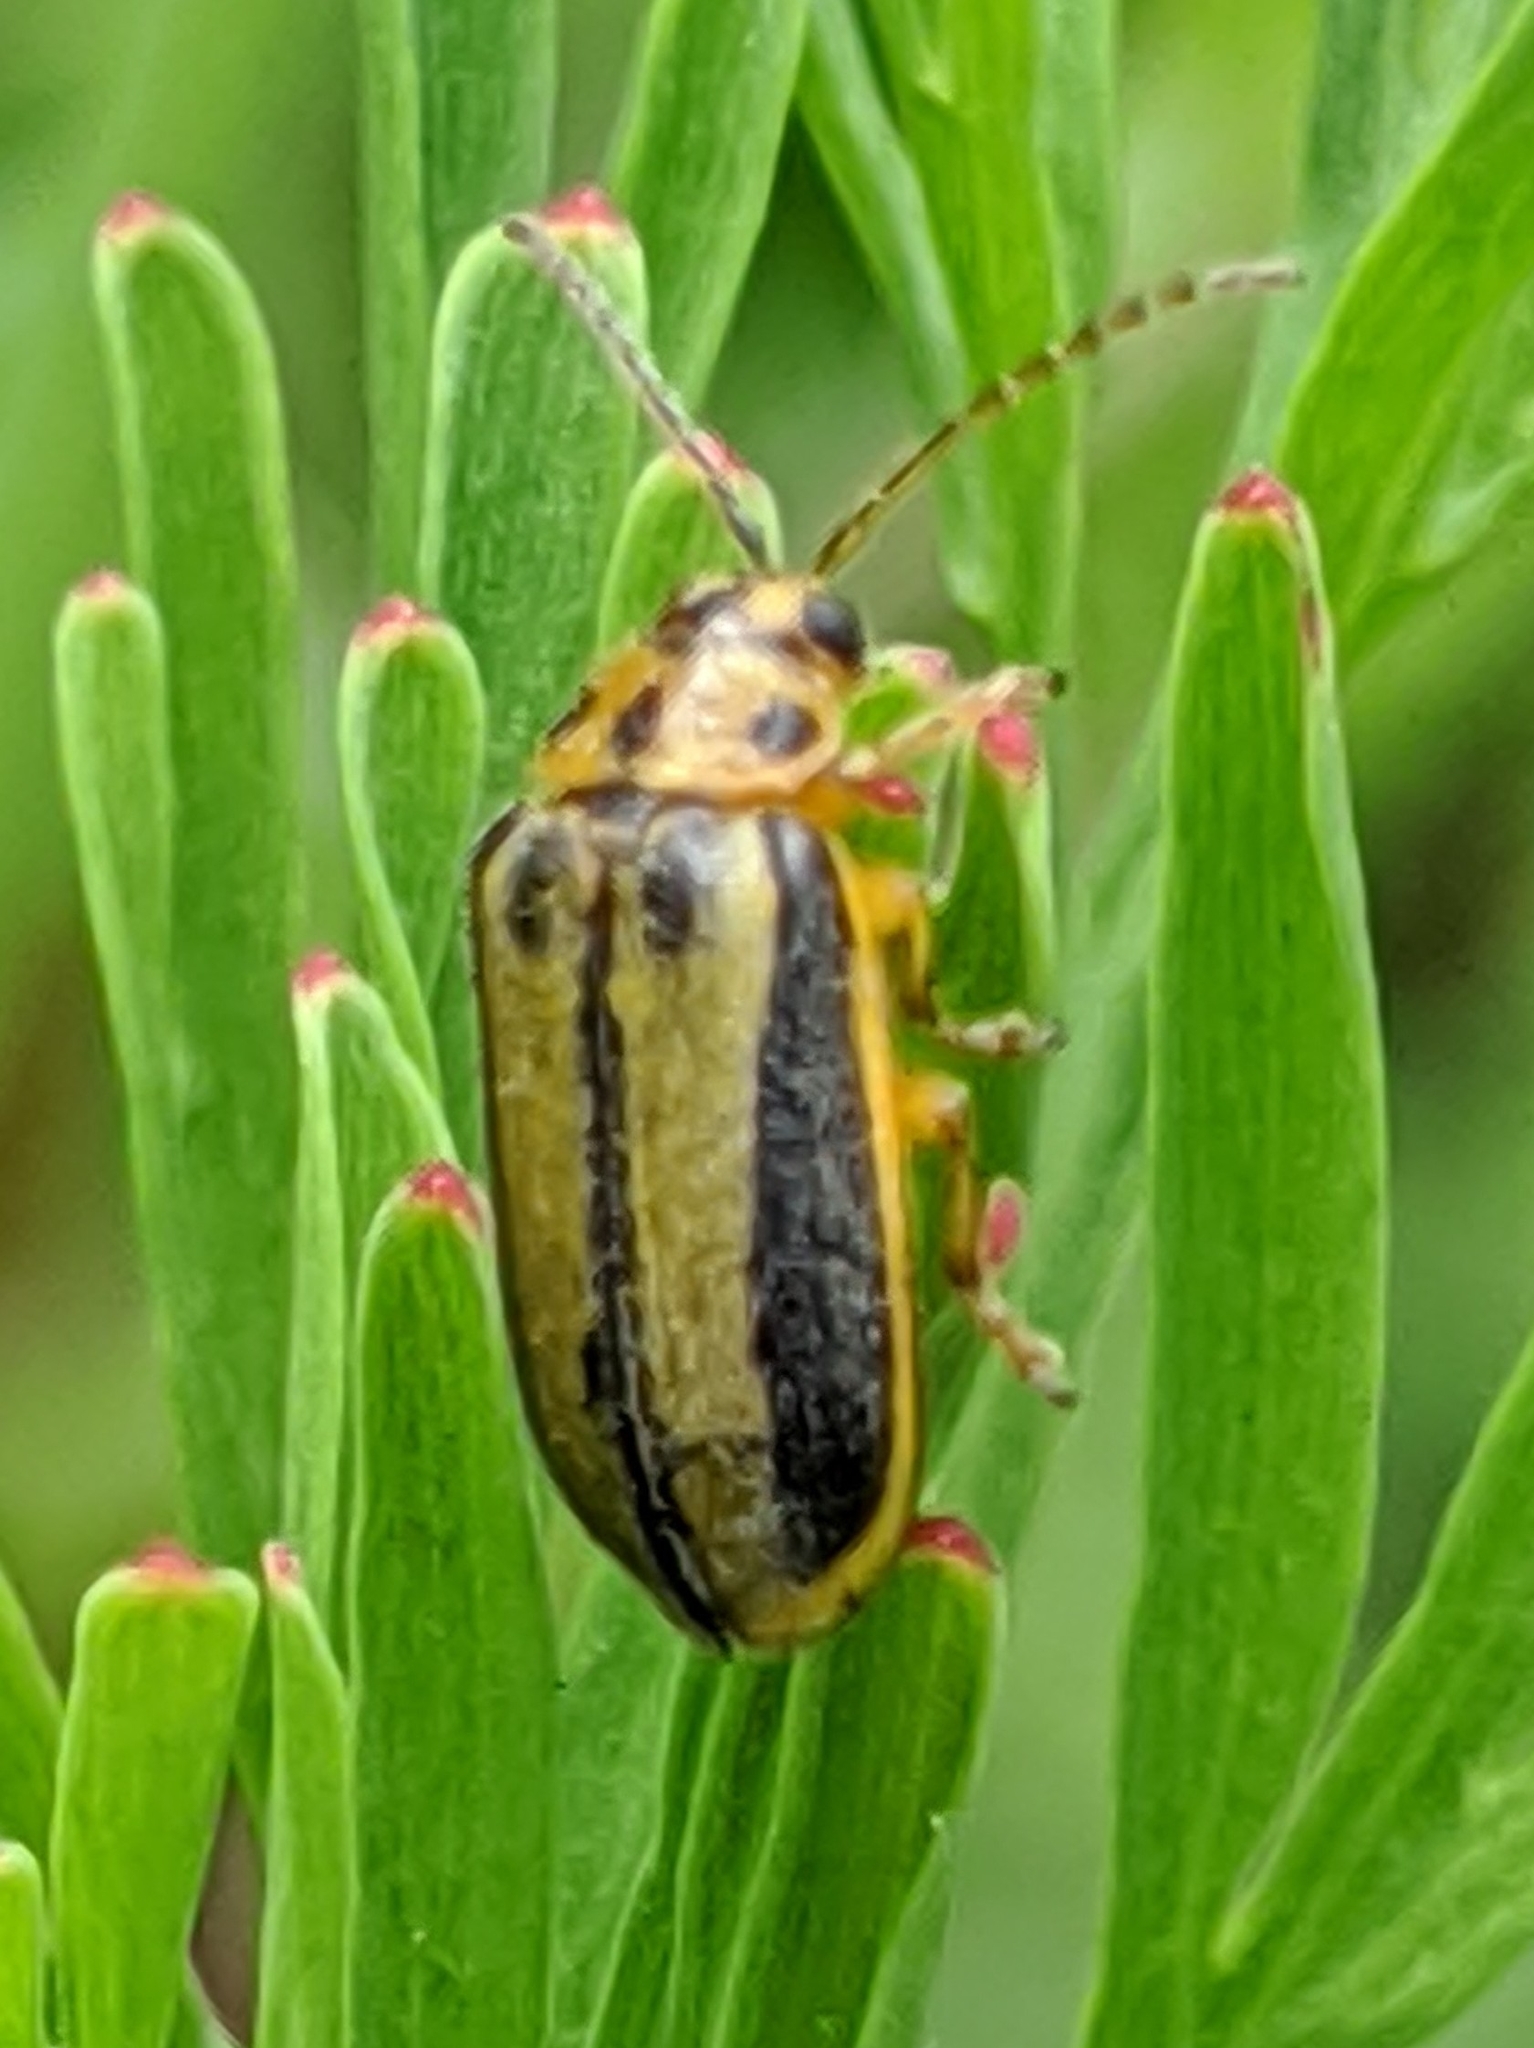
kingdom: Animalia
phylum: Arthropoda
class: Insecta
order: Coleoptera
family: Chrysomelidae
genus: Xanthogaleruca
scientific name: Xanthogaleruca luteola
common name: Elm leaf beetle
